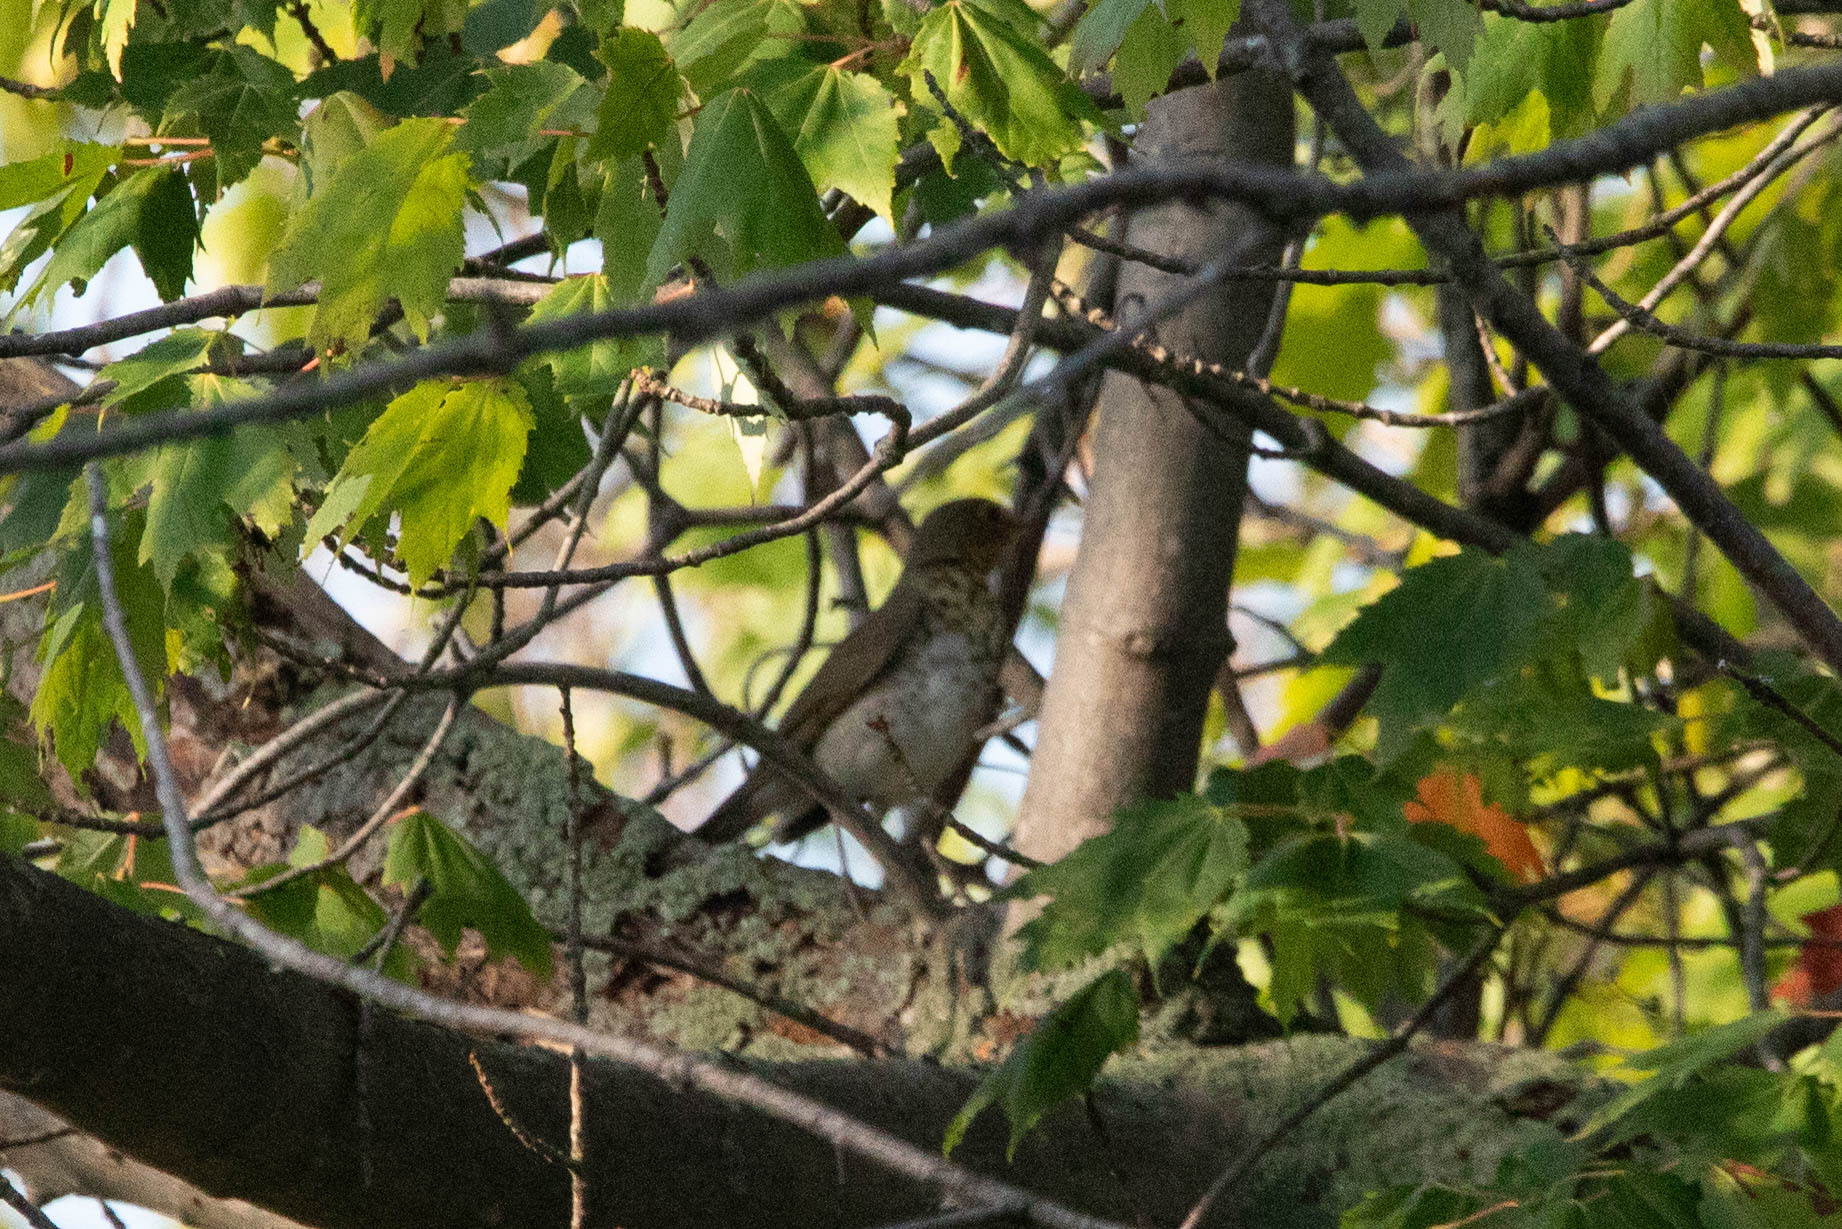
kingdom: Animalia
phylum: Chordata
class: Aves
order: Passeriformes
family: Turdidae
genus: Catharus
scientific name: Catharus ustulatus
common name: Swainson's thrush
